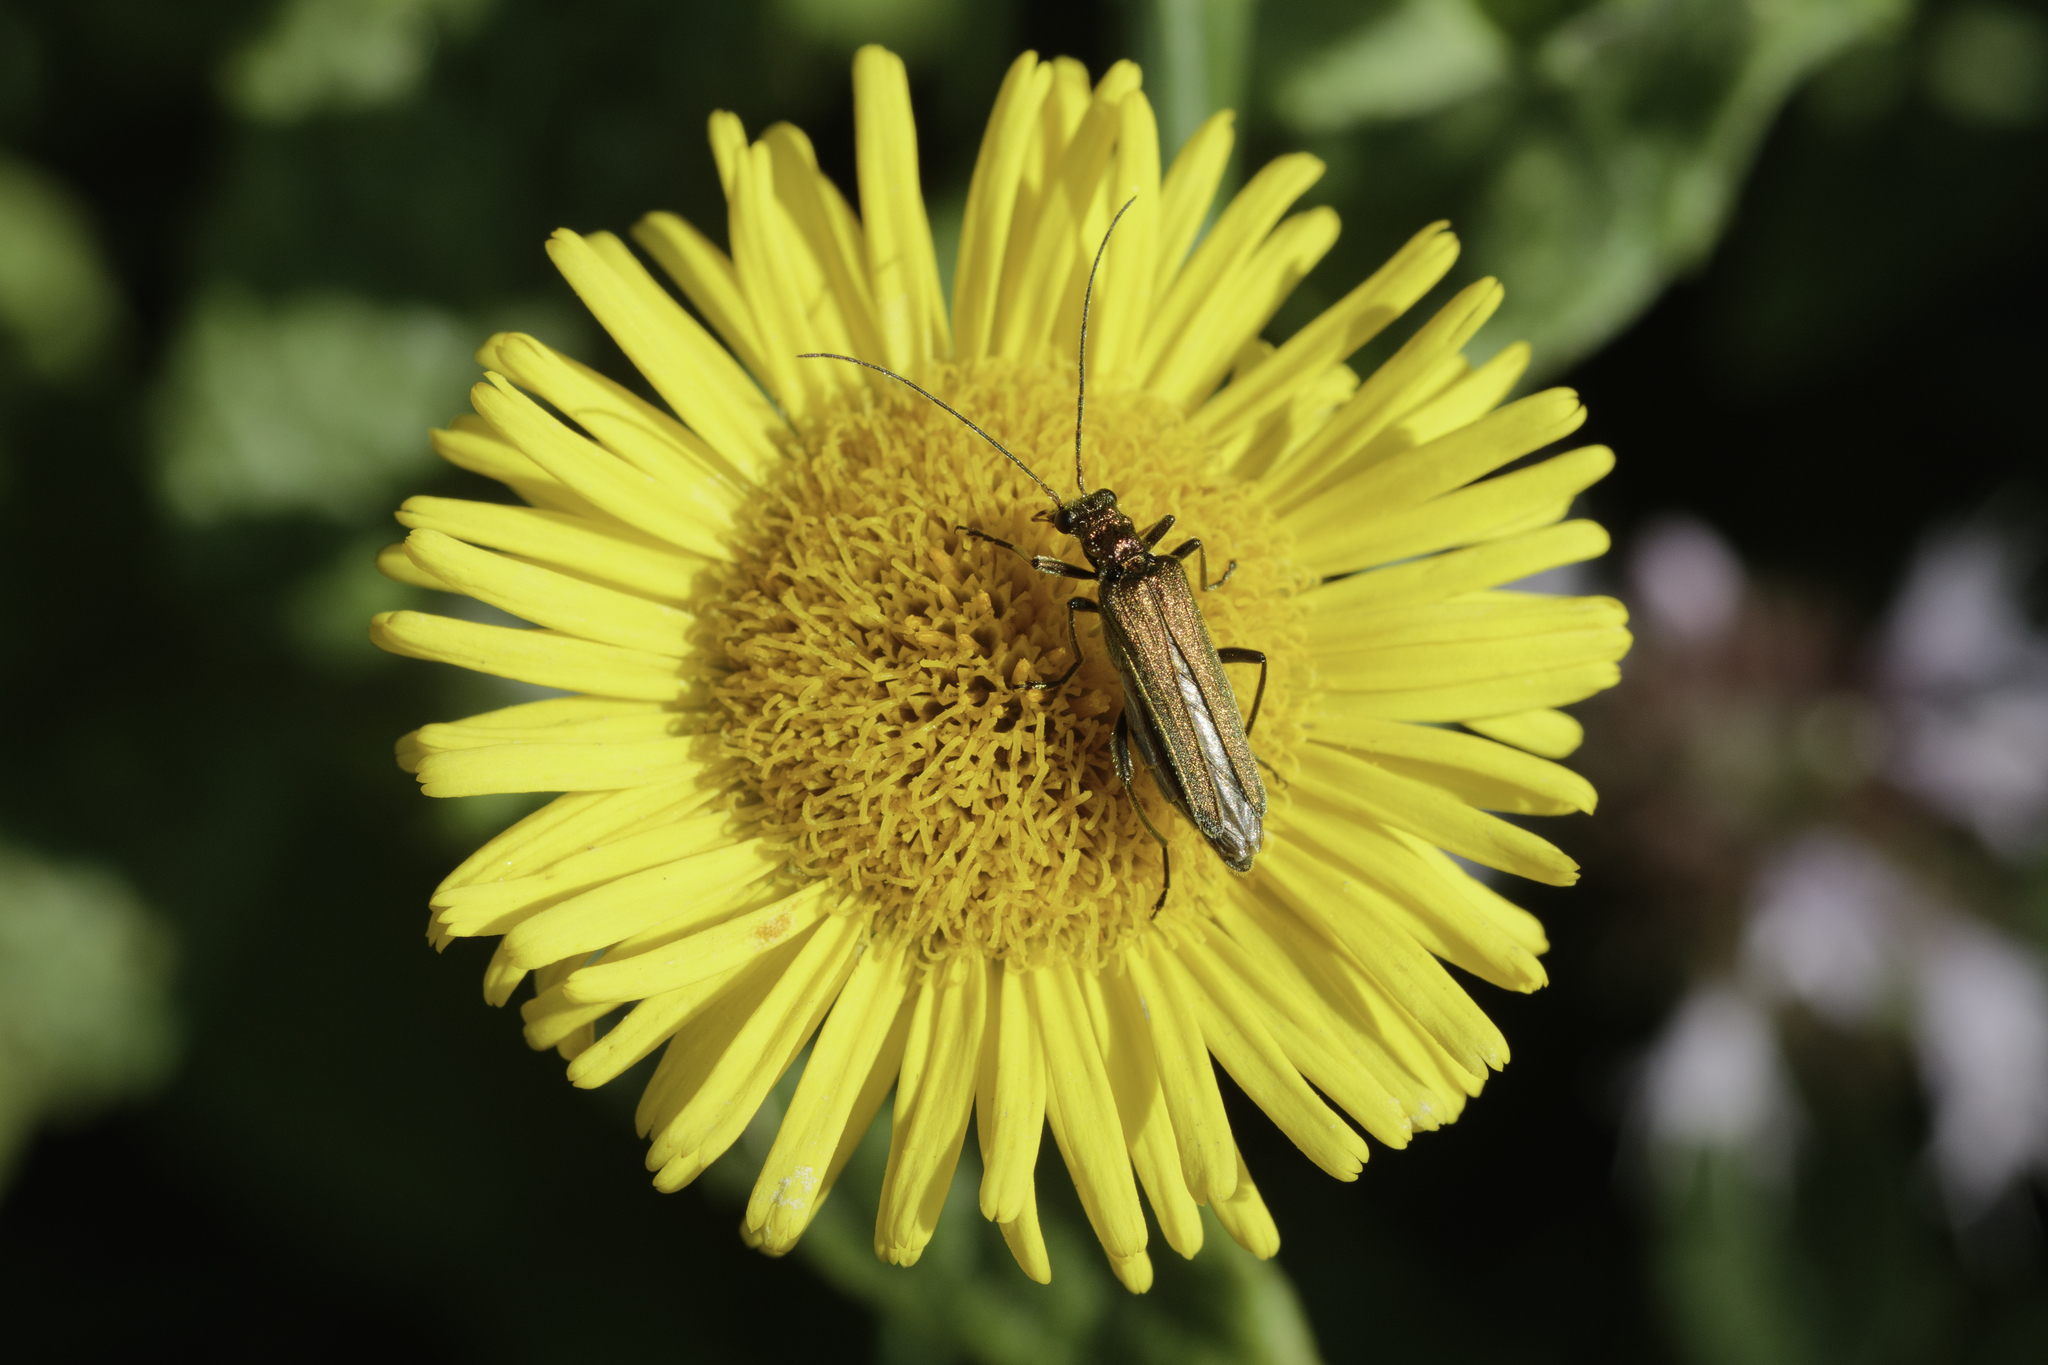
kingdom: Animalia
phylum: Arthropoda
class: Insecta
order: Coleoptera
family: Oedemeridae
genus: Oedemera
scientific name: Oedemera nobilis
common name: Swollen-thighed beetle
